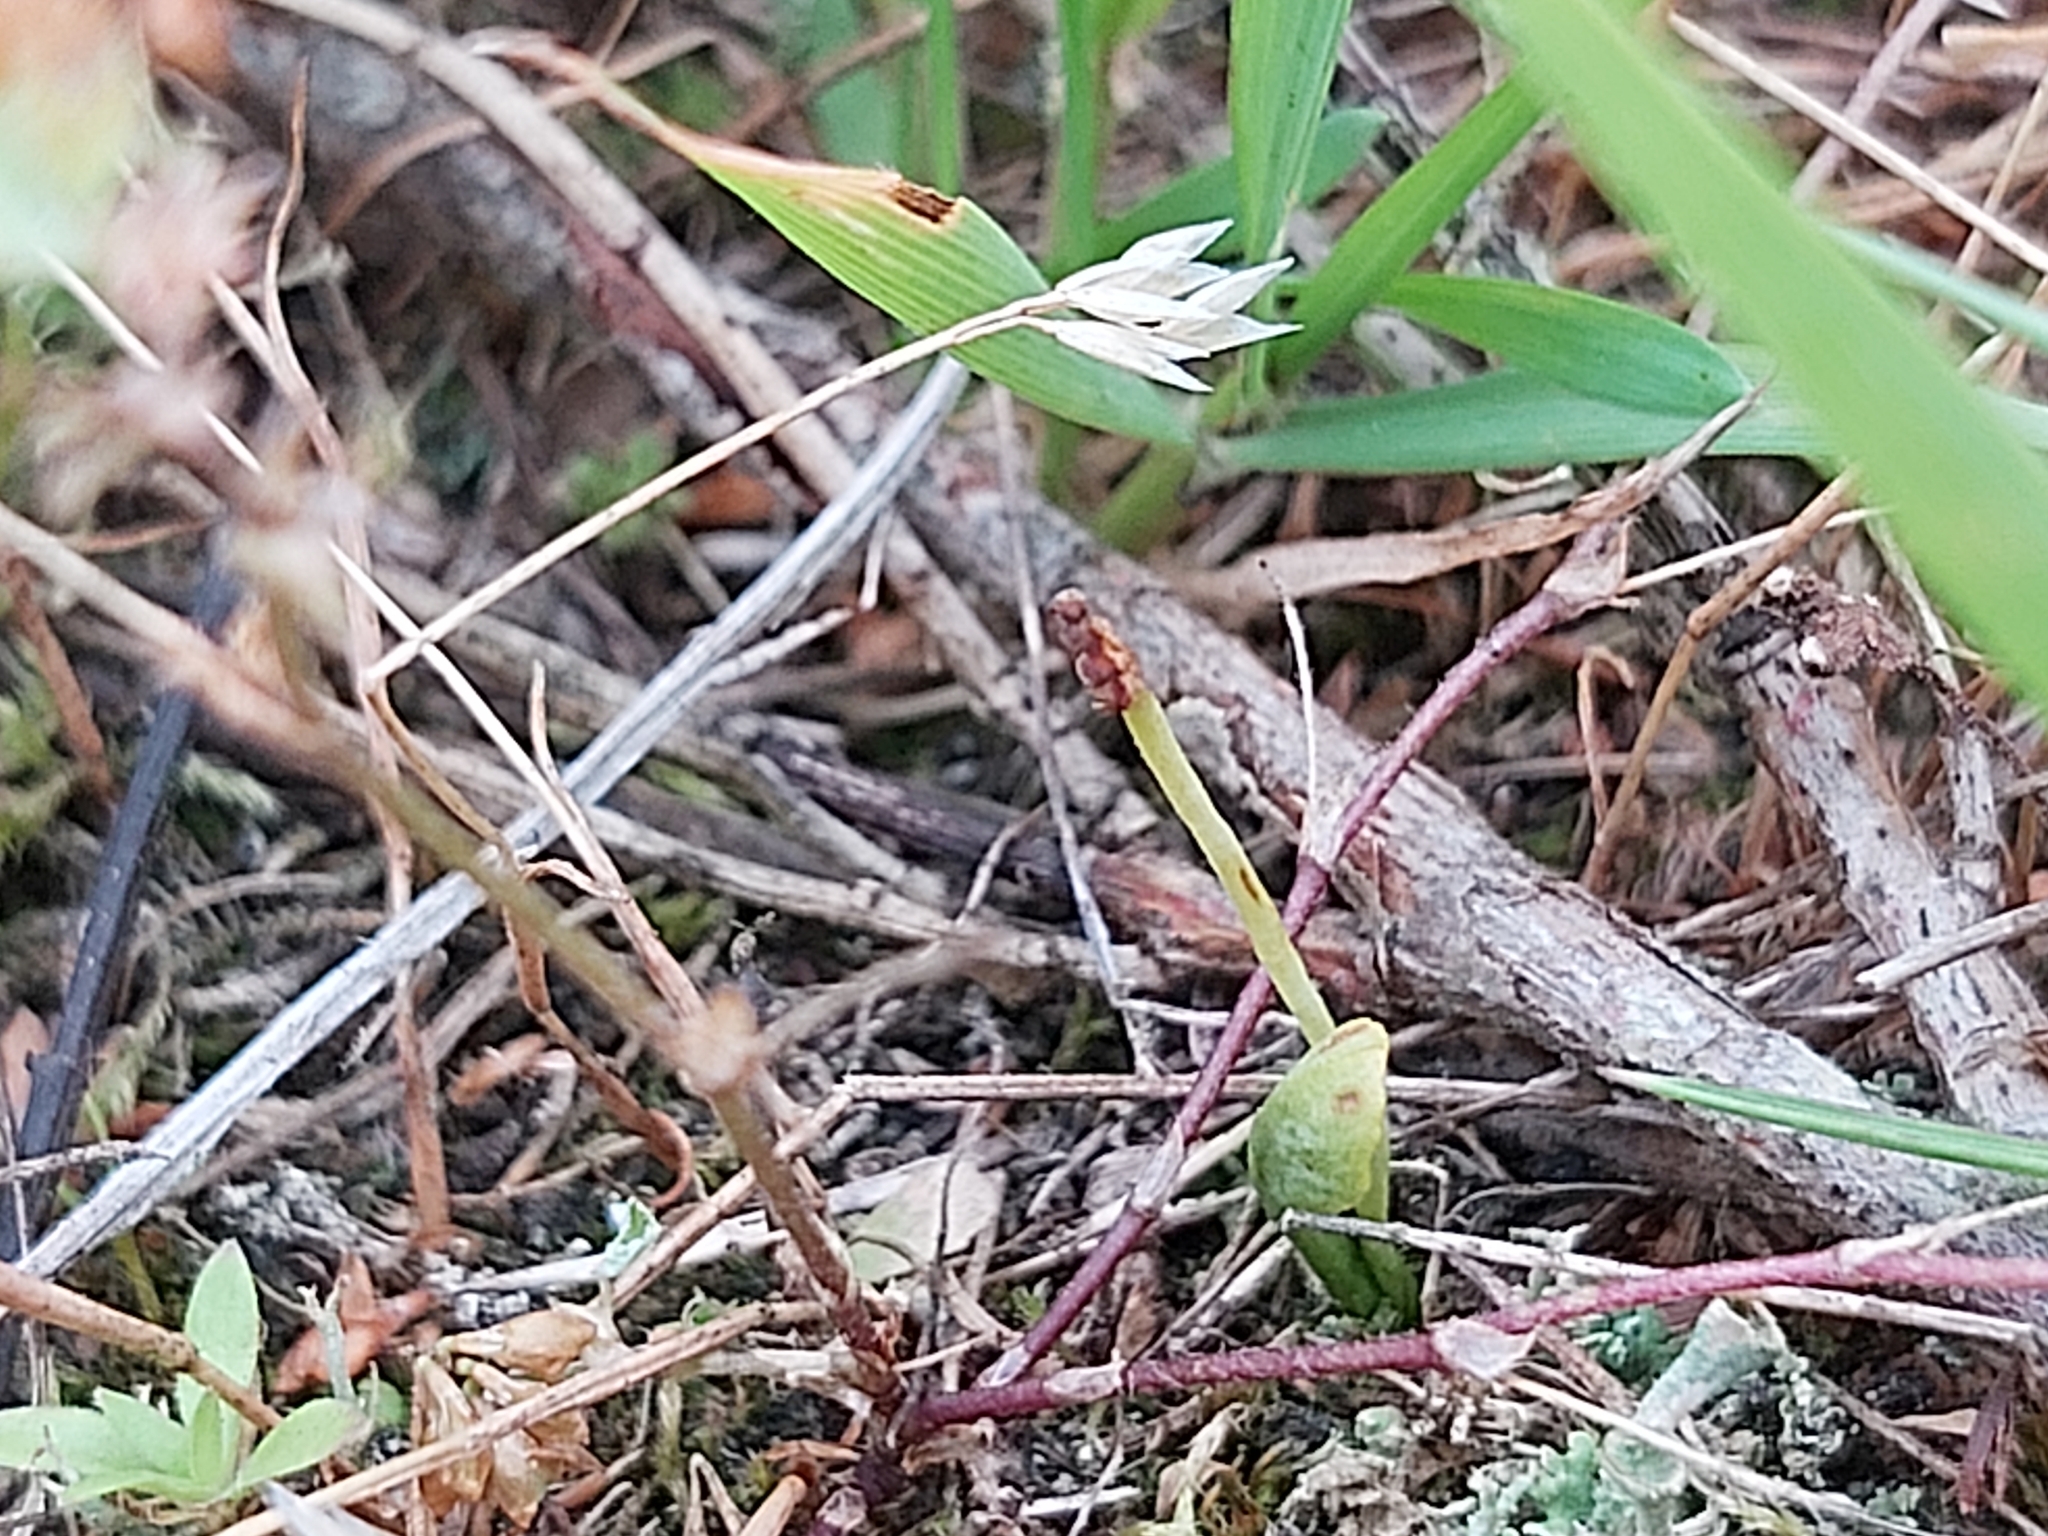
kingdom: Plantae
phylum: Tracheophyta
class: Polypodiopsida
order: Ophioglossales
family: Ophioglossaceae
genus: Botrychium
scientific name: Botrychium simplex
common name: Least moonwort
